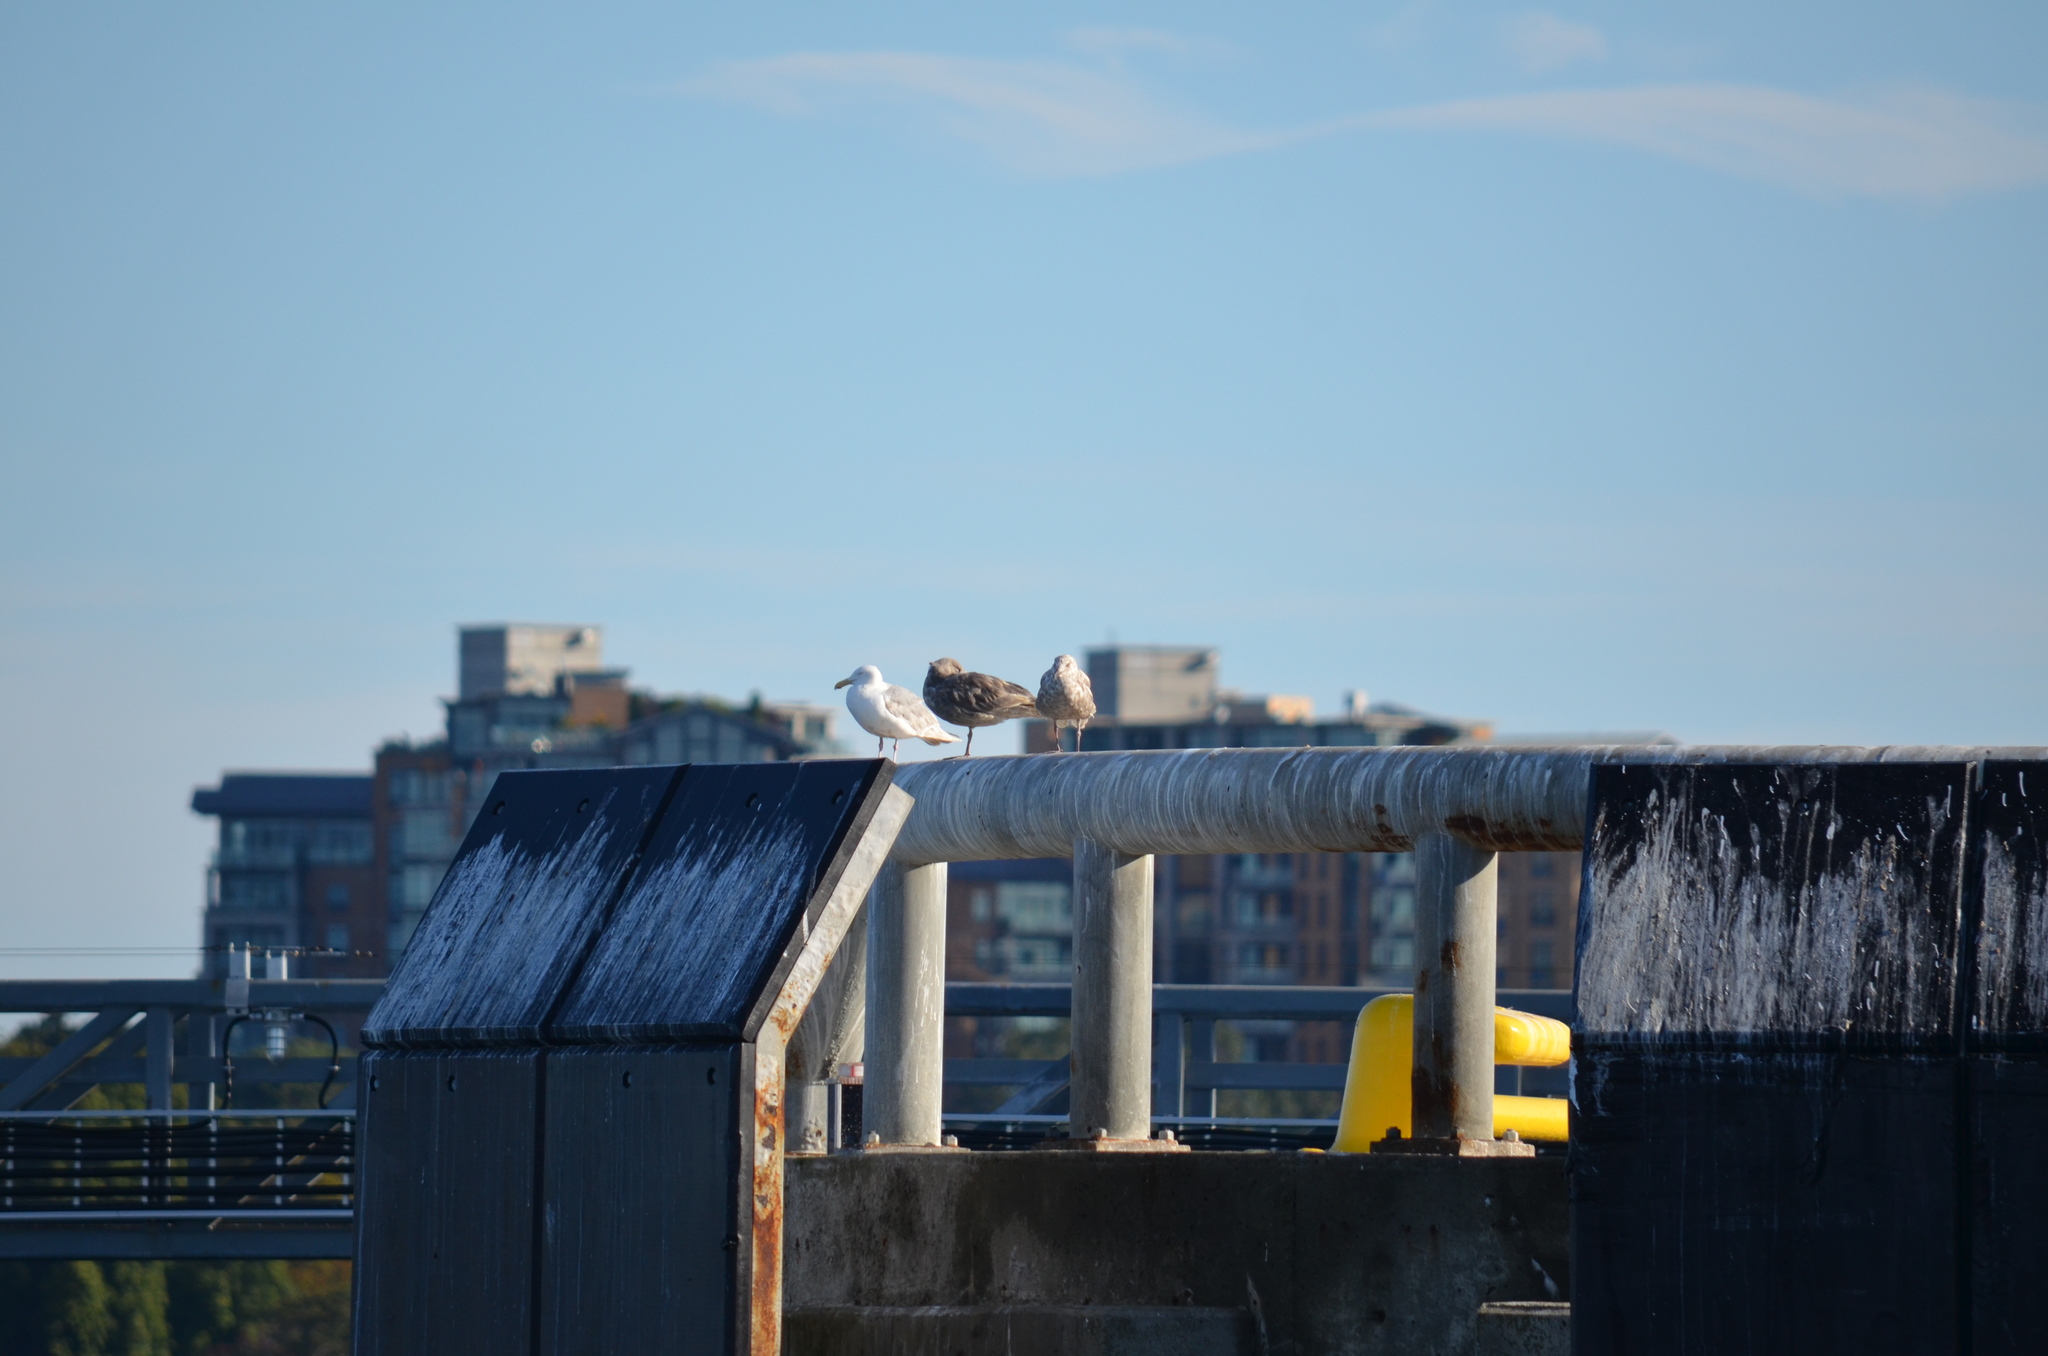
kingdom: Animalia
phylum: Chordata
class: Aves
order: Charadriiformes
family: Laridae
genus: Larus
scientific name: Larus
